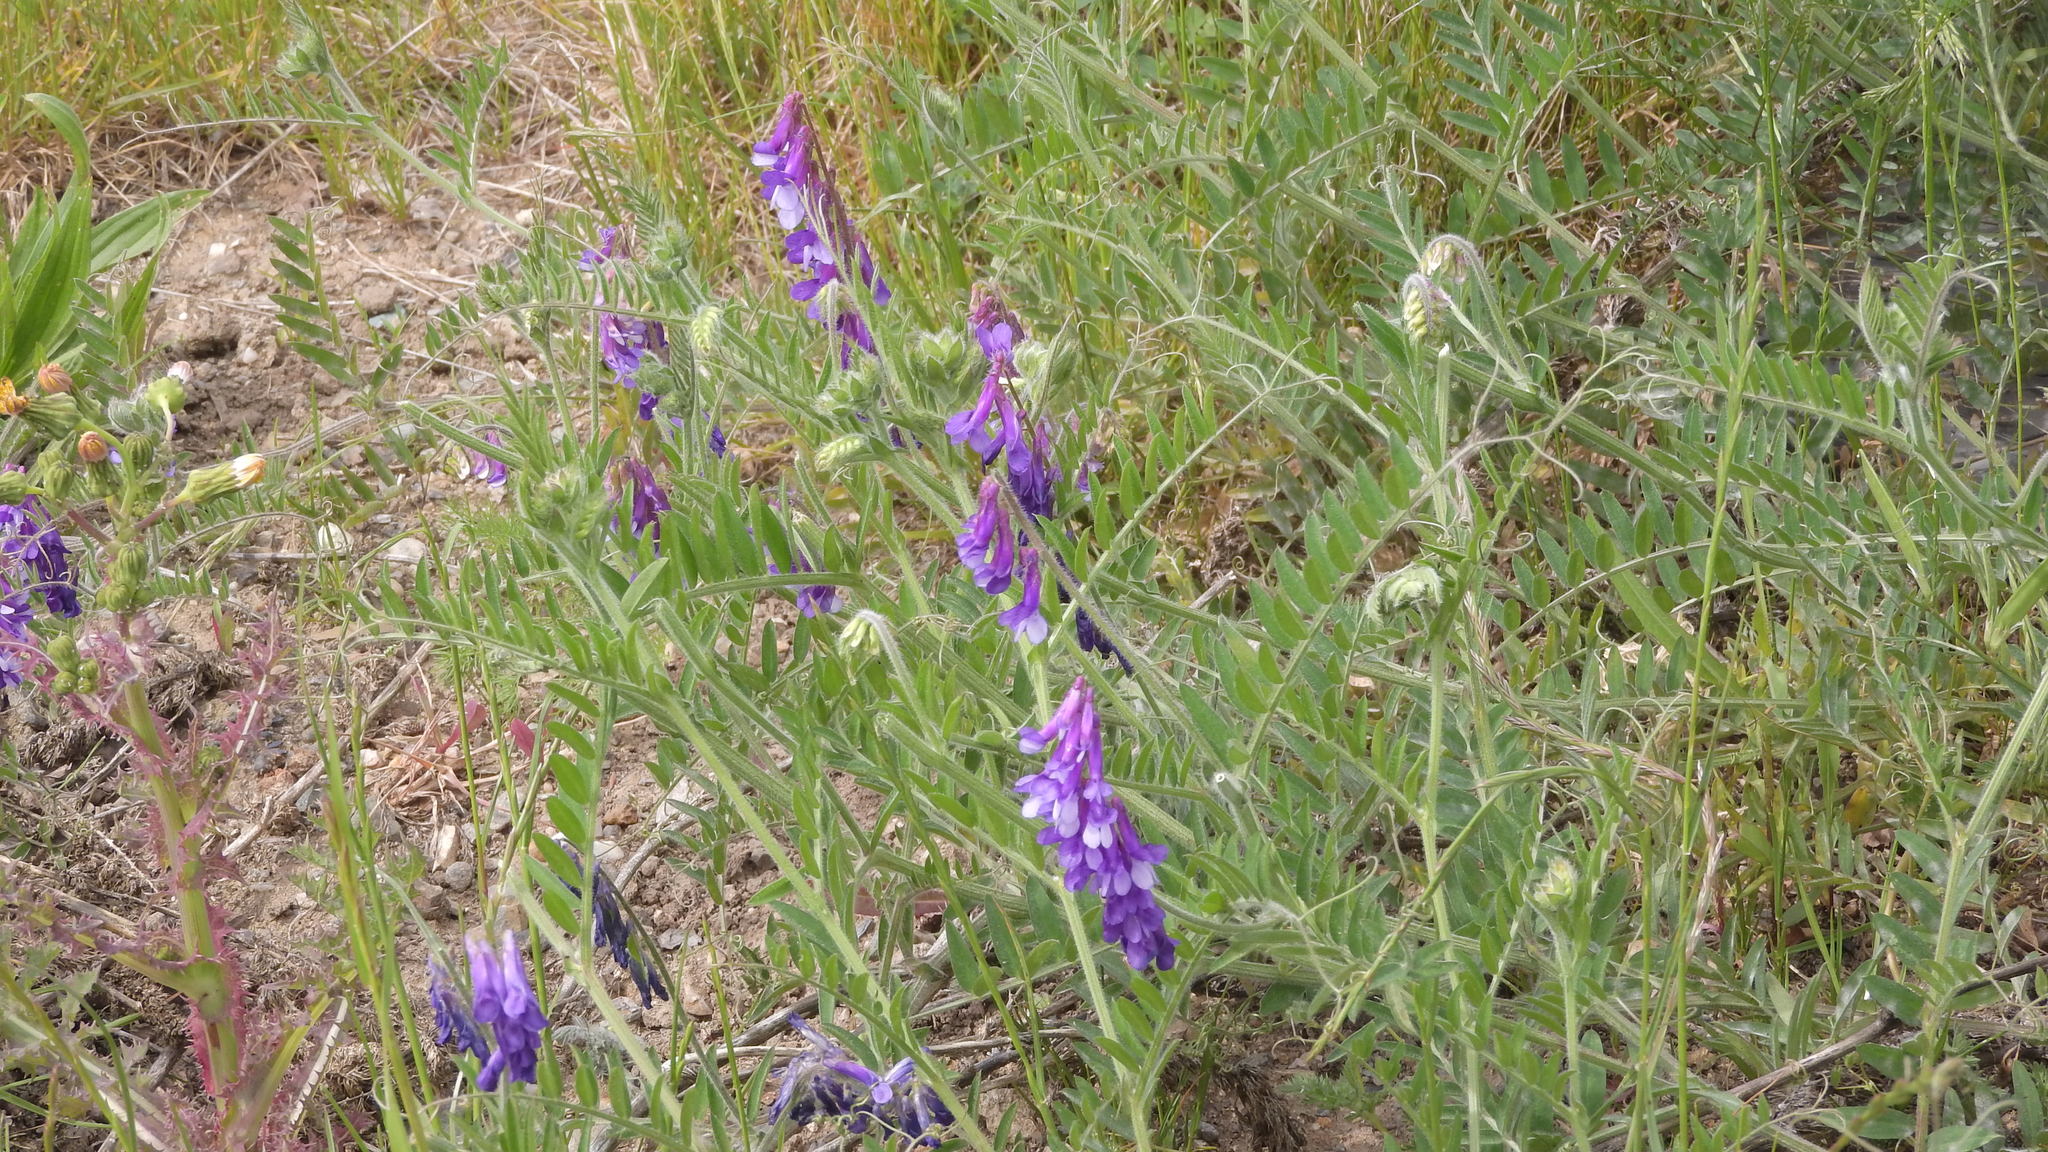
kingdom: Plantae
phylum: Tracheophyta
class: Magnoliopsida
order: Fabales
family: Fabaceae
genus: Vicia
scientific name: Vicia villosa
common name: Fodder vetch
